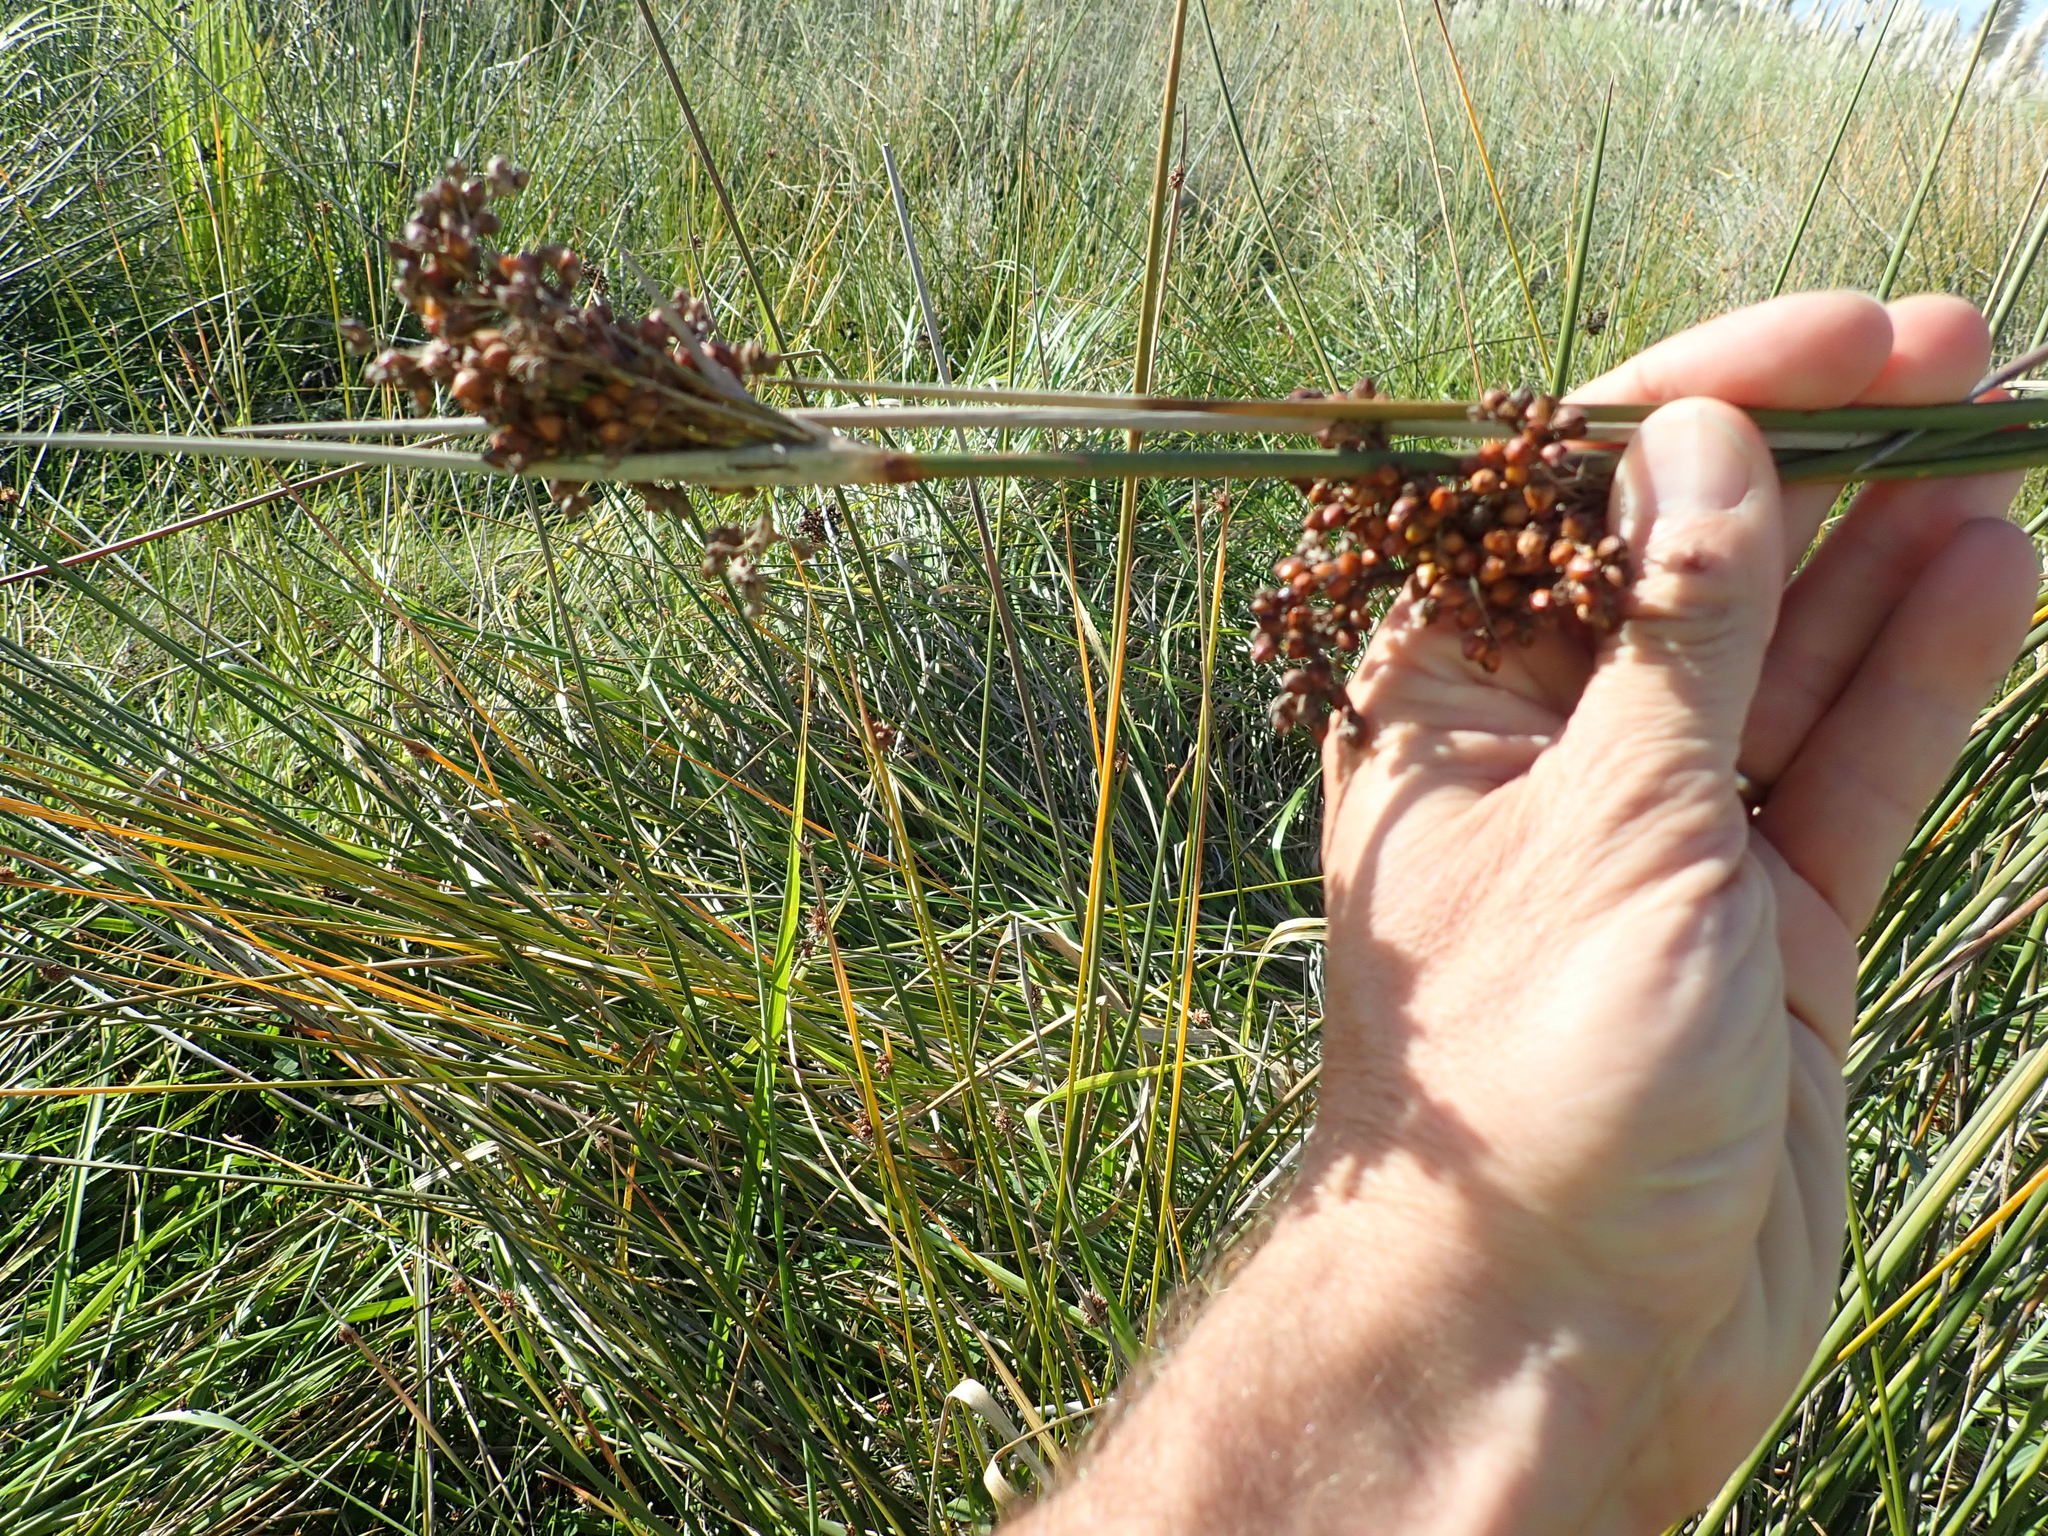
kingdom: Plantae
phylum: Tracheophyta
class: Liliopsida
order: Poales
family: Juncaceae
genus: Juncus
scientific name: Juncus acutus
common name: Sharp rush
